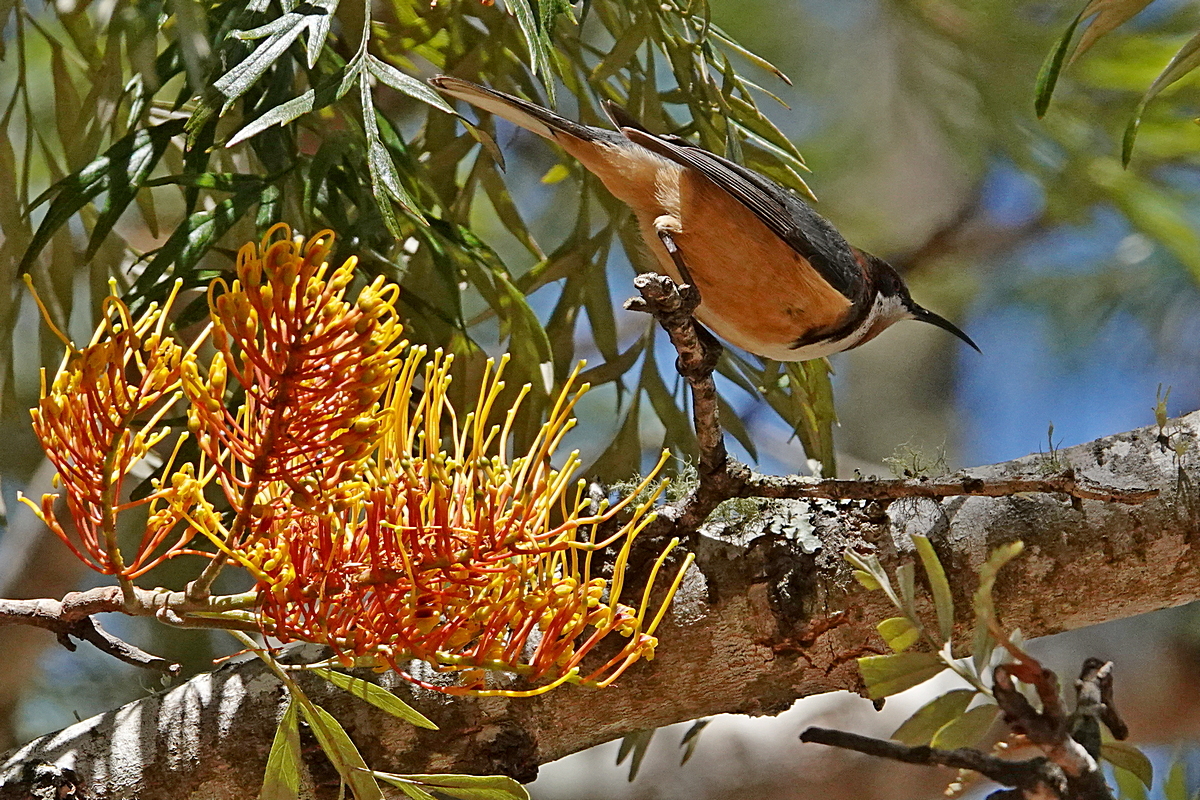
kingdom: Animalia
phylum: Chordata
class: Aves
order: Passeriformes
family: Meliphagidae
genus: Acanthorhynchus
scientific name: Acanthorhynchus tenuirostris
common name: Eastern spinebill
